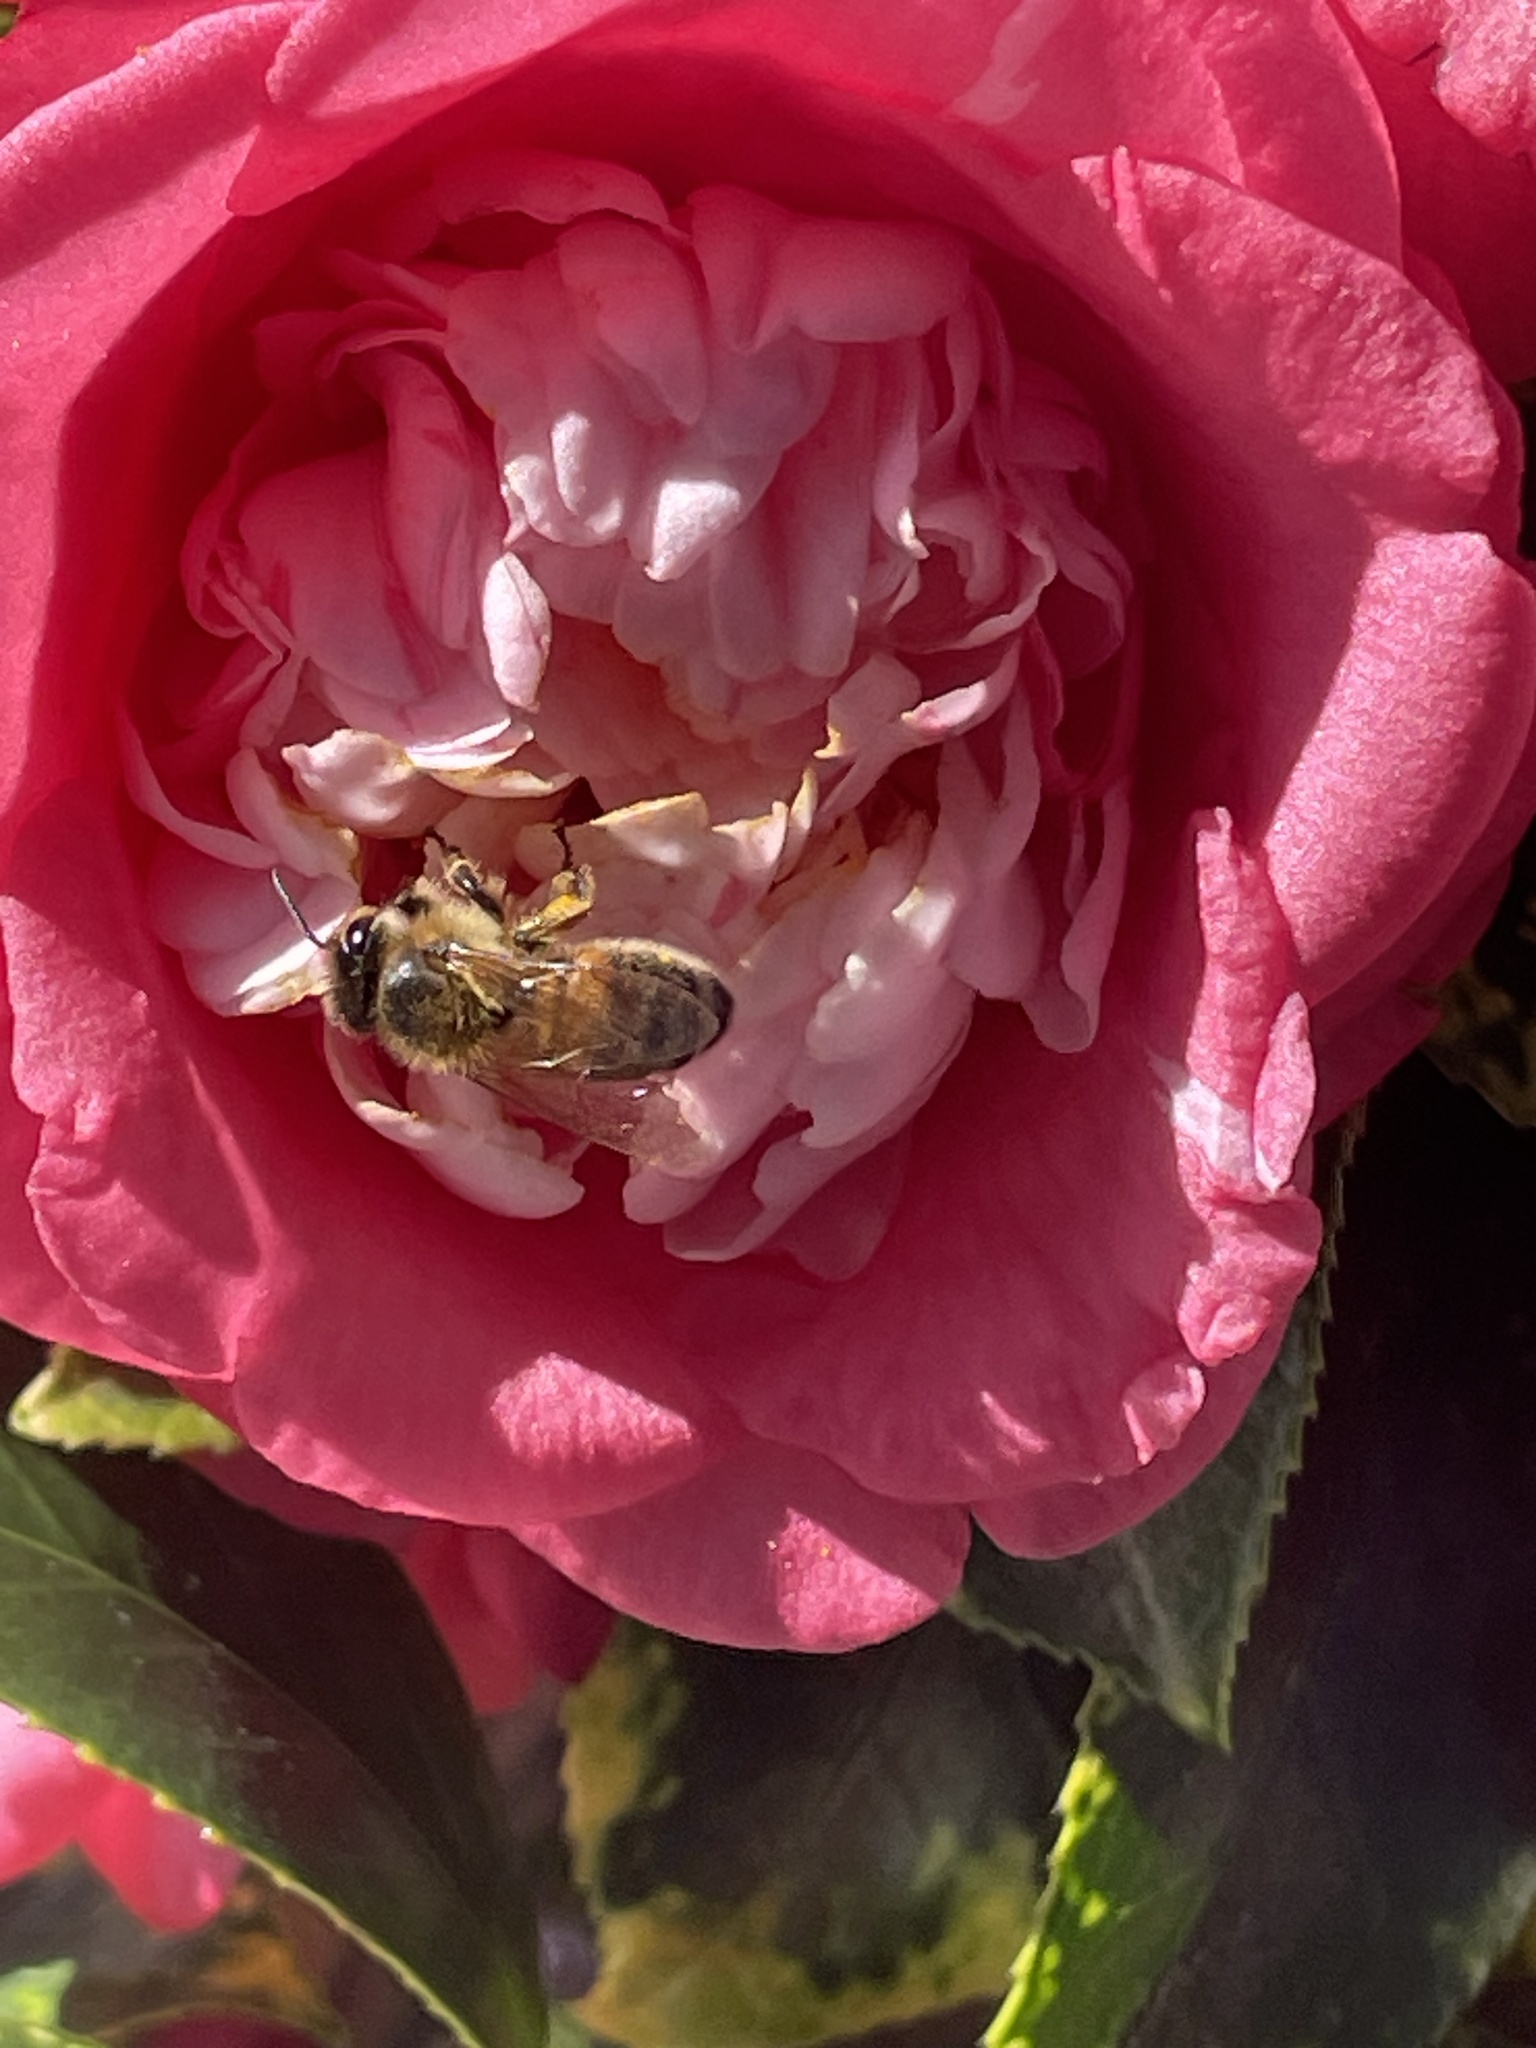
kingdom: Animalia
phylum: Arthropoda
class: Insecta
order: Hymenoptera
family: Apidae
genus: Apis
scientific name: Apis mellifera
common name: Honey bee
